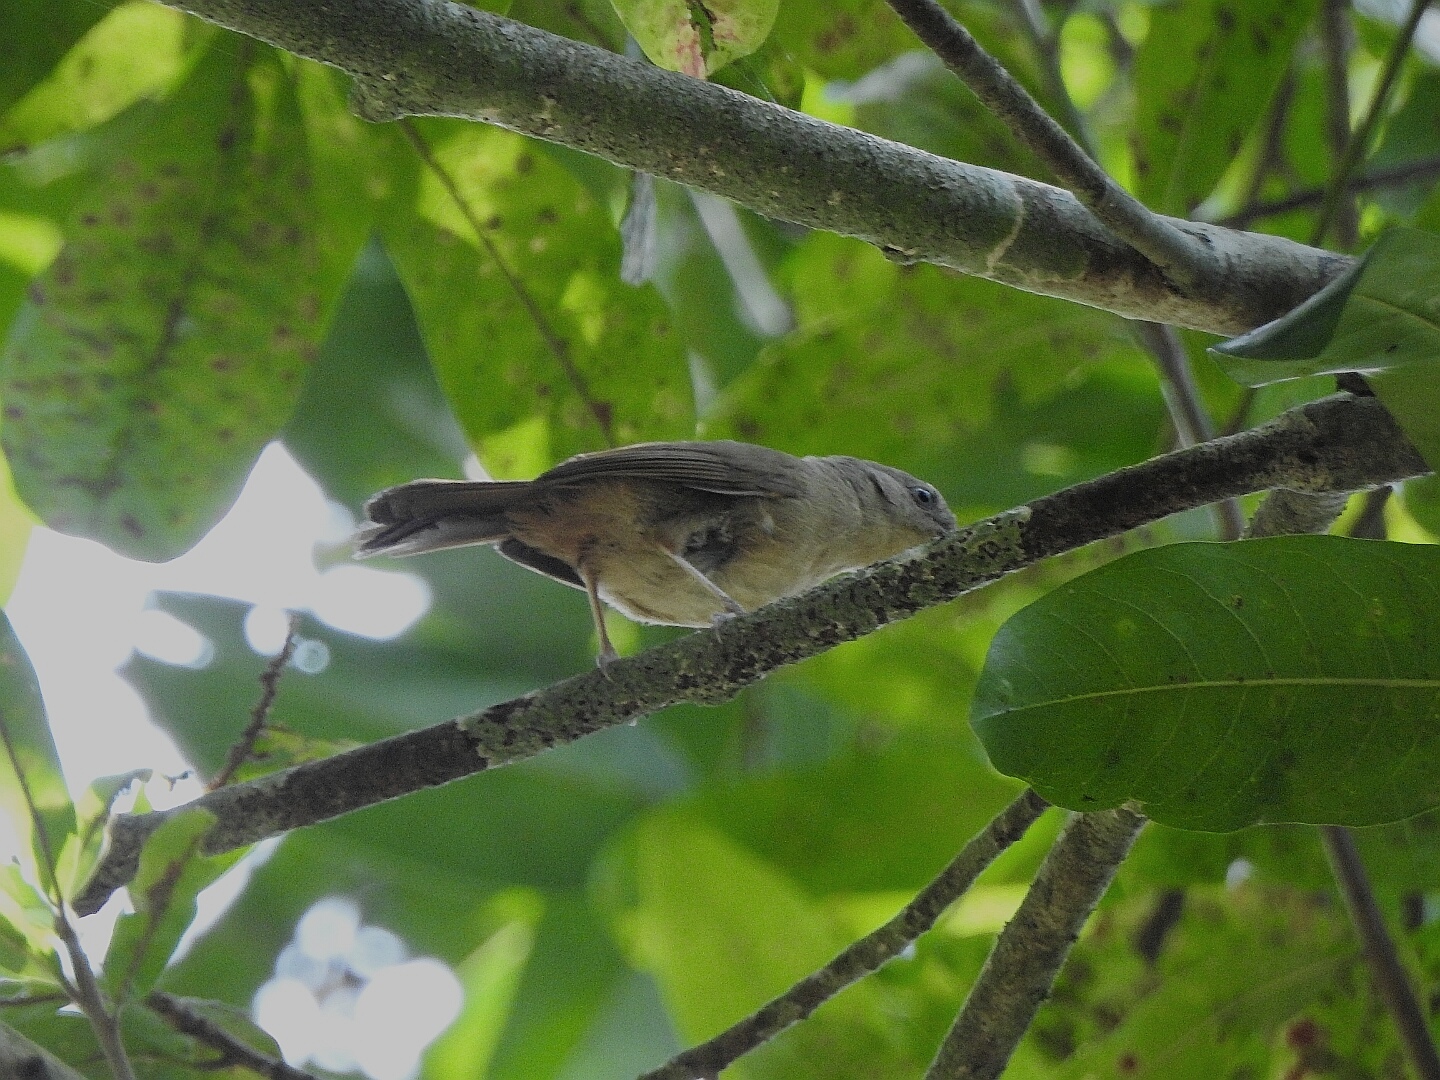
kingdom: Animalia
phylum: Chordata
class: Aves
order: Passeriformes
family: Pellorneidae
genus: Alcippe
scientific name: Alcippe poioicephala
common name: Brown-cheeked fulvetta
